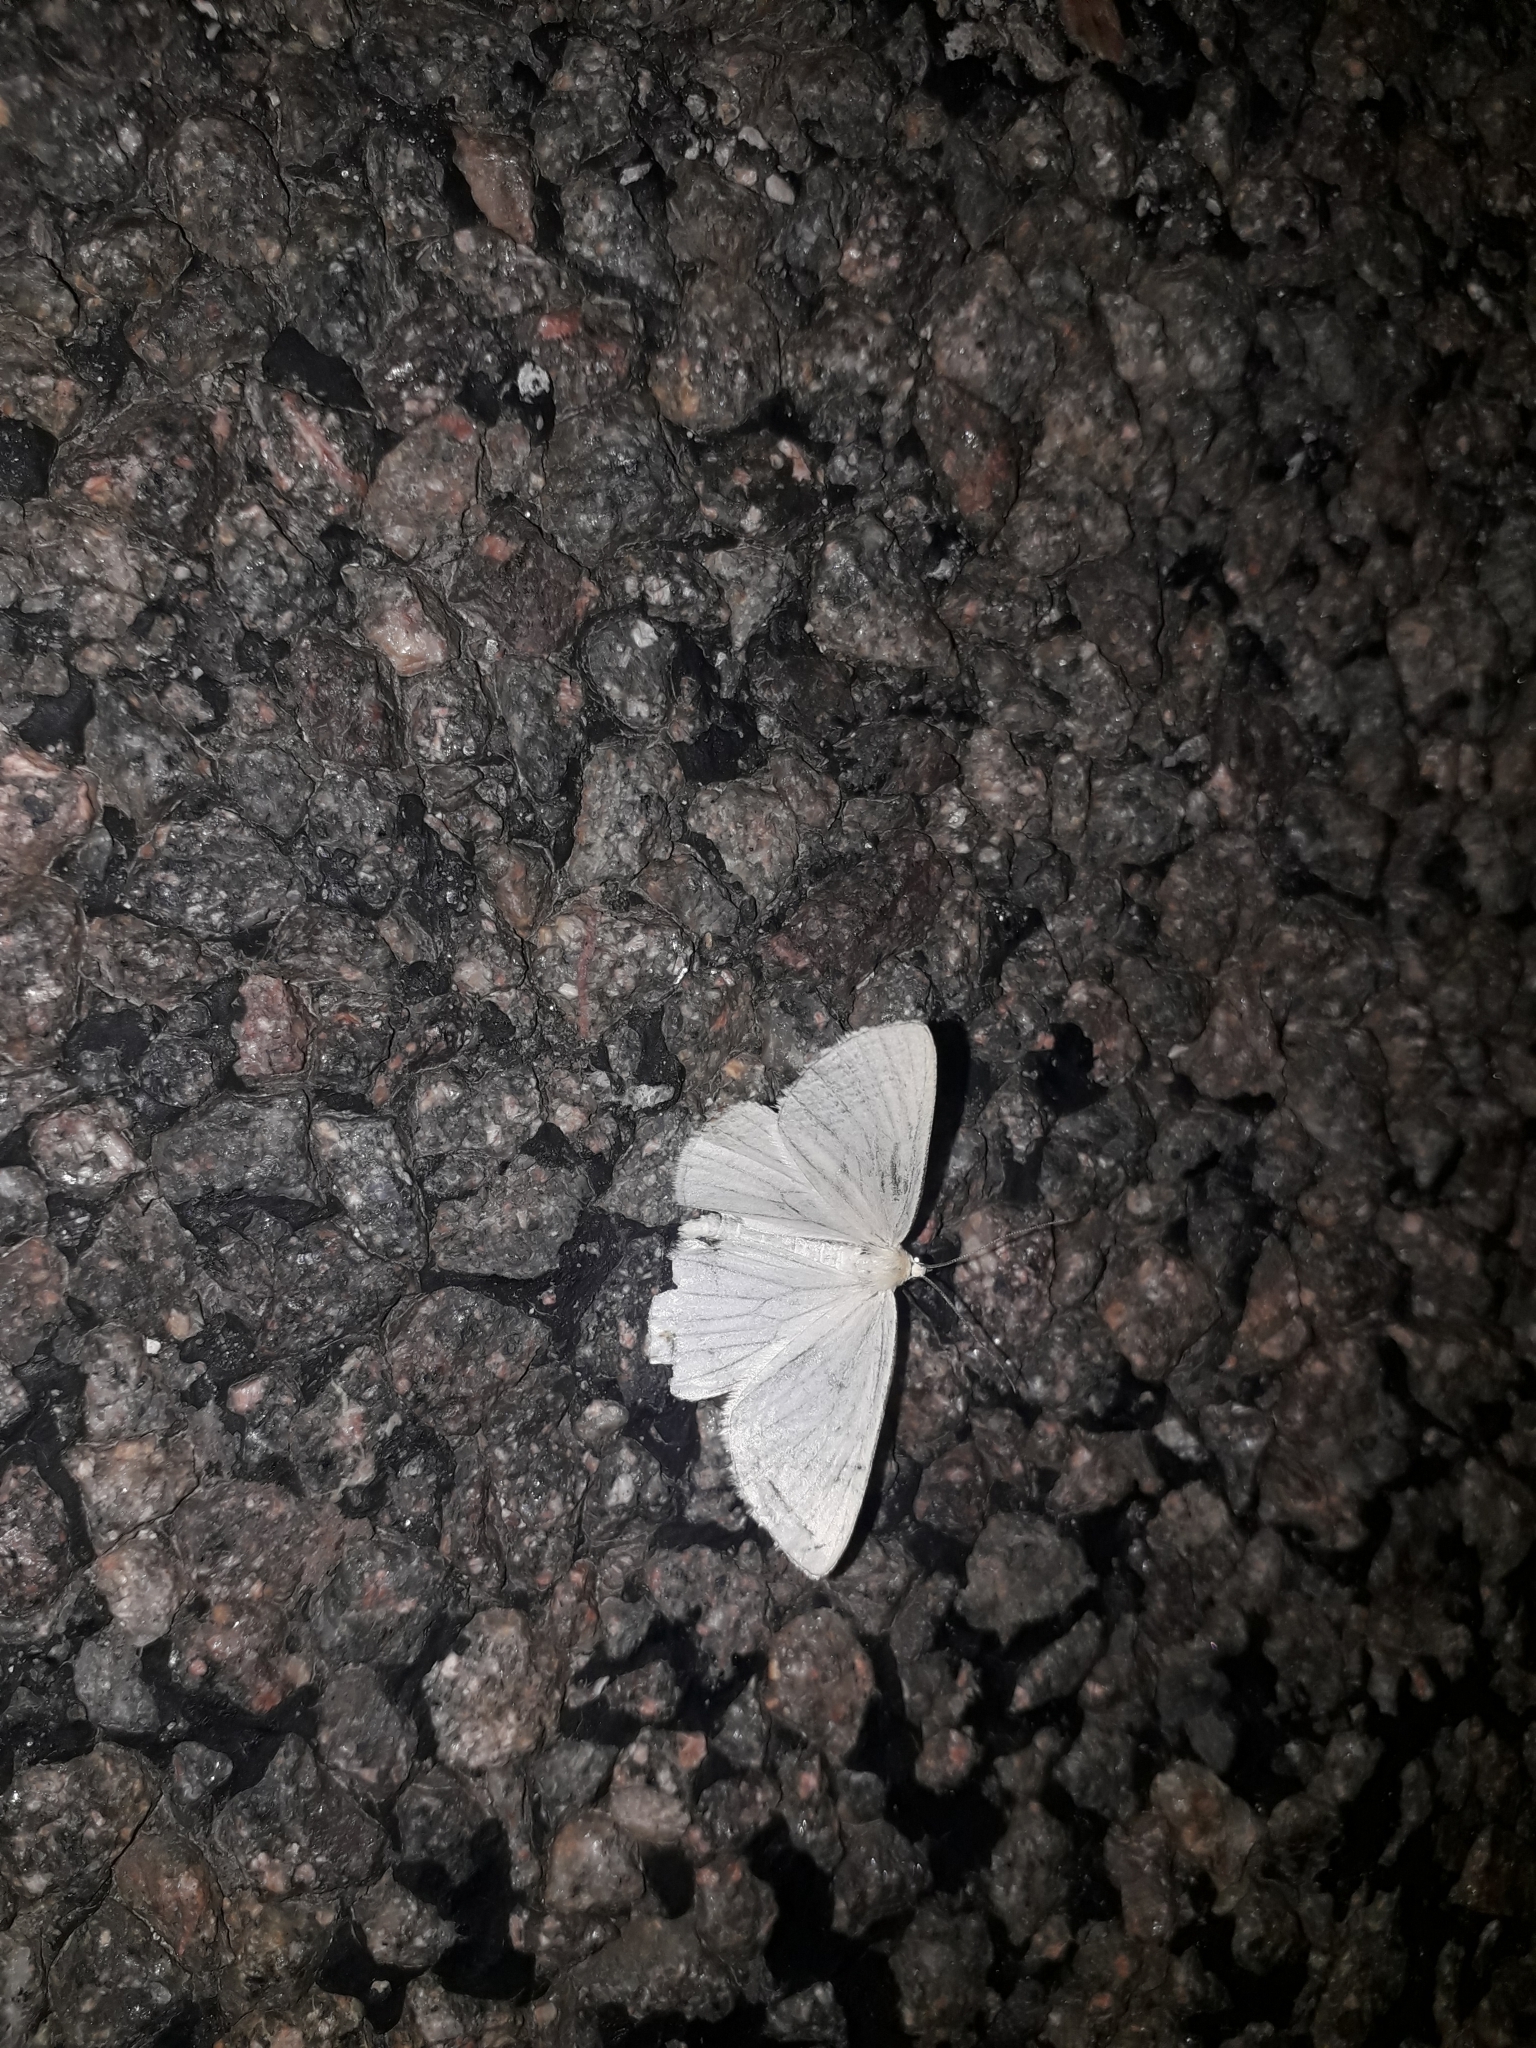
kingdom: Animalia
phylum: Arthropoda
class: Insecta
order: Lepidoptera
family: Geometridae
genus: Siona
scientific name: Siona lineata
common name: Black-veined moth
